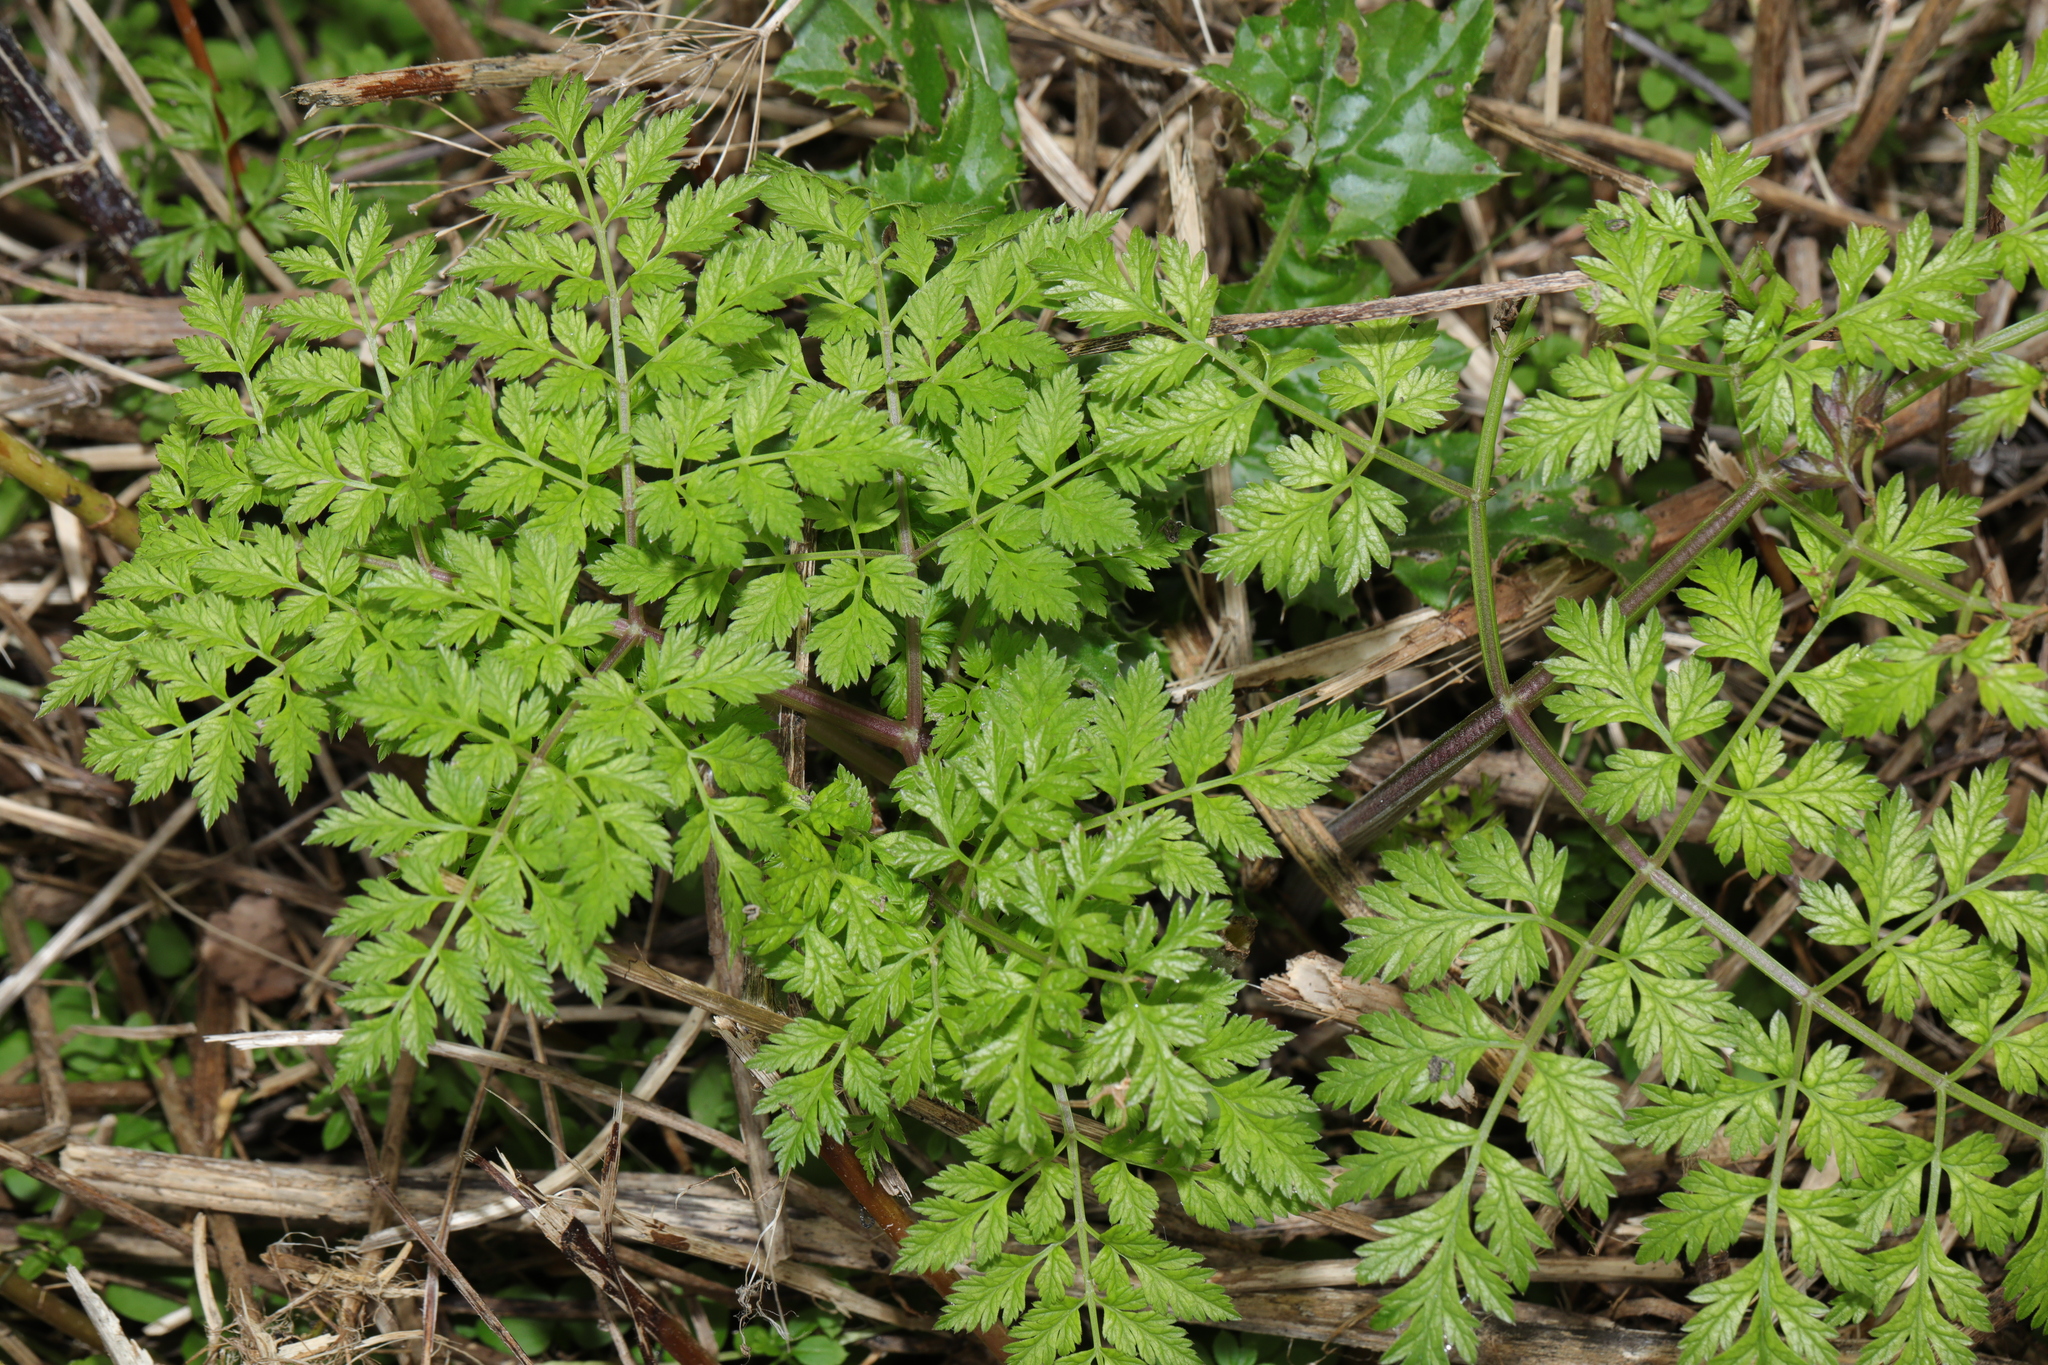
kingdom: Plantae
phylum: Tracheophyta
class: Magnoliopsida
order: Apiales
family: Apiaceae
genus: Anthriscus
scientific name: Anthriscus sylvestris
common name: Cow parsley
